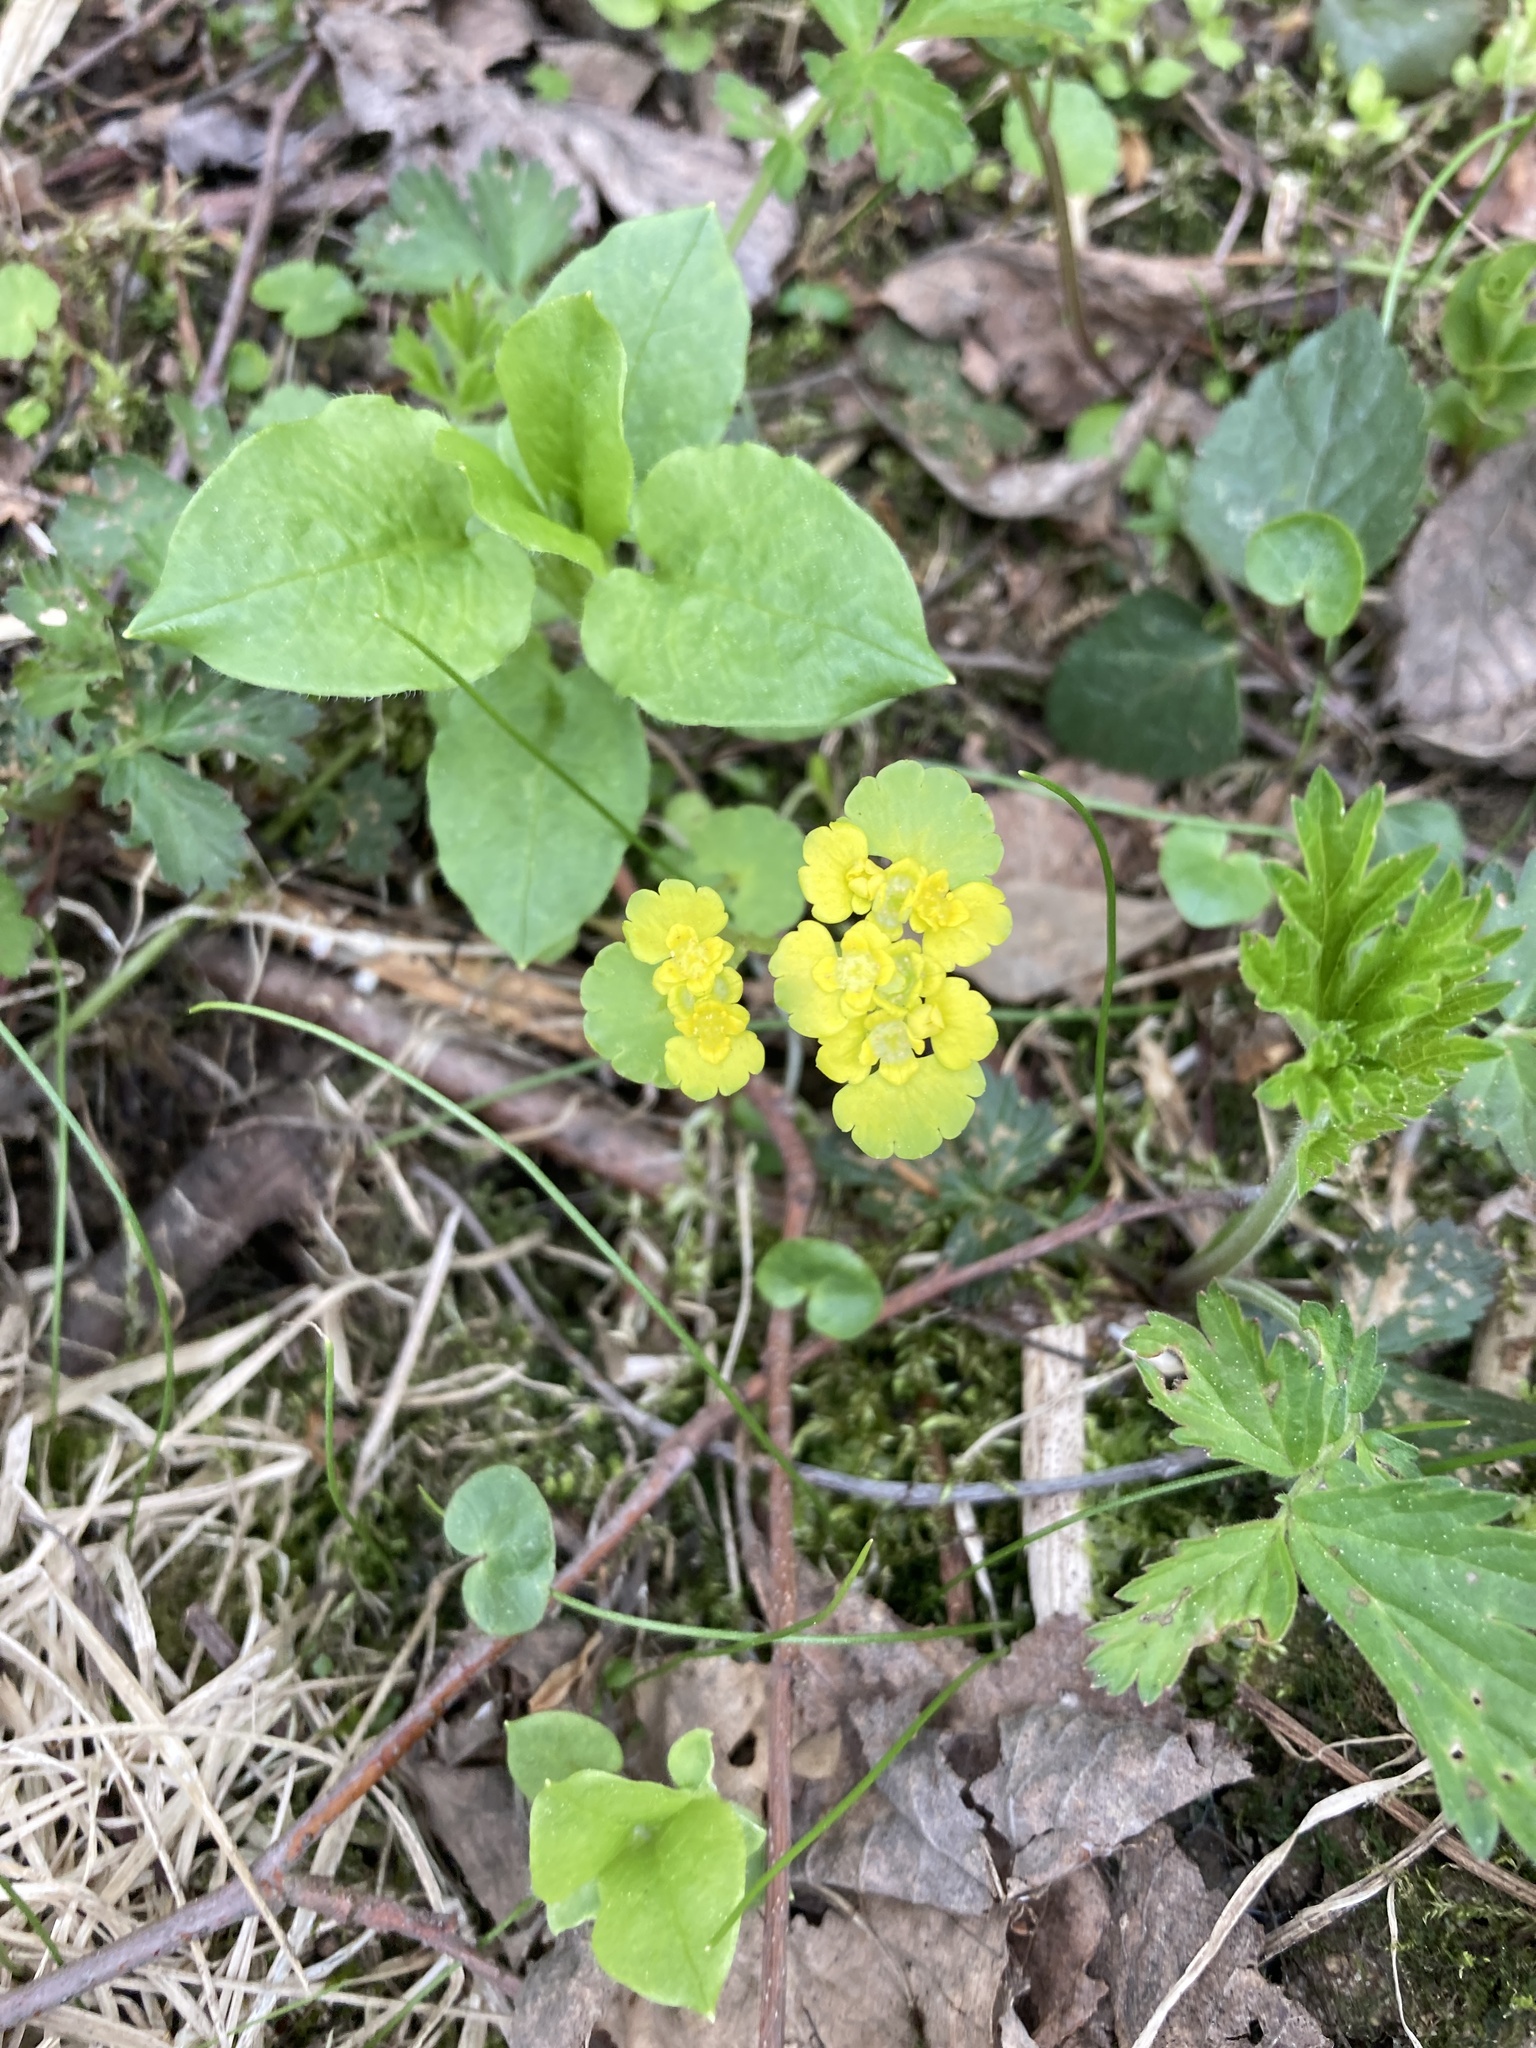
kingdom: Plantae
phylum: Tracheophyta
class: Magnoliopsida
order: Saxifragales
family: Saxifragaceae
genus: Chrysosplenium
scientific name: Chrysosplenium alternifolium
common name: Alternate-leaved golden-saxifrage
